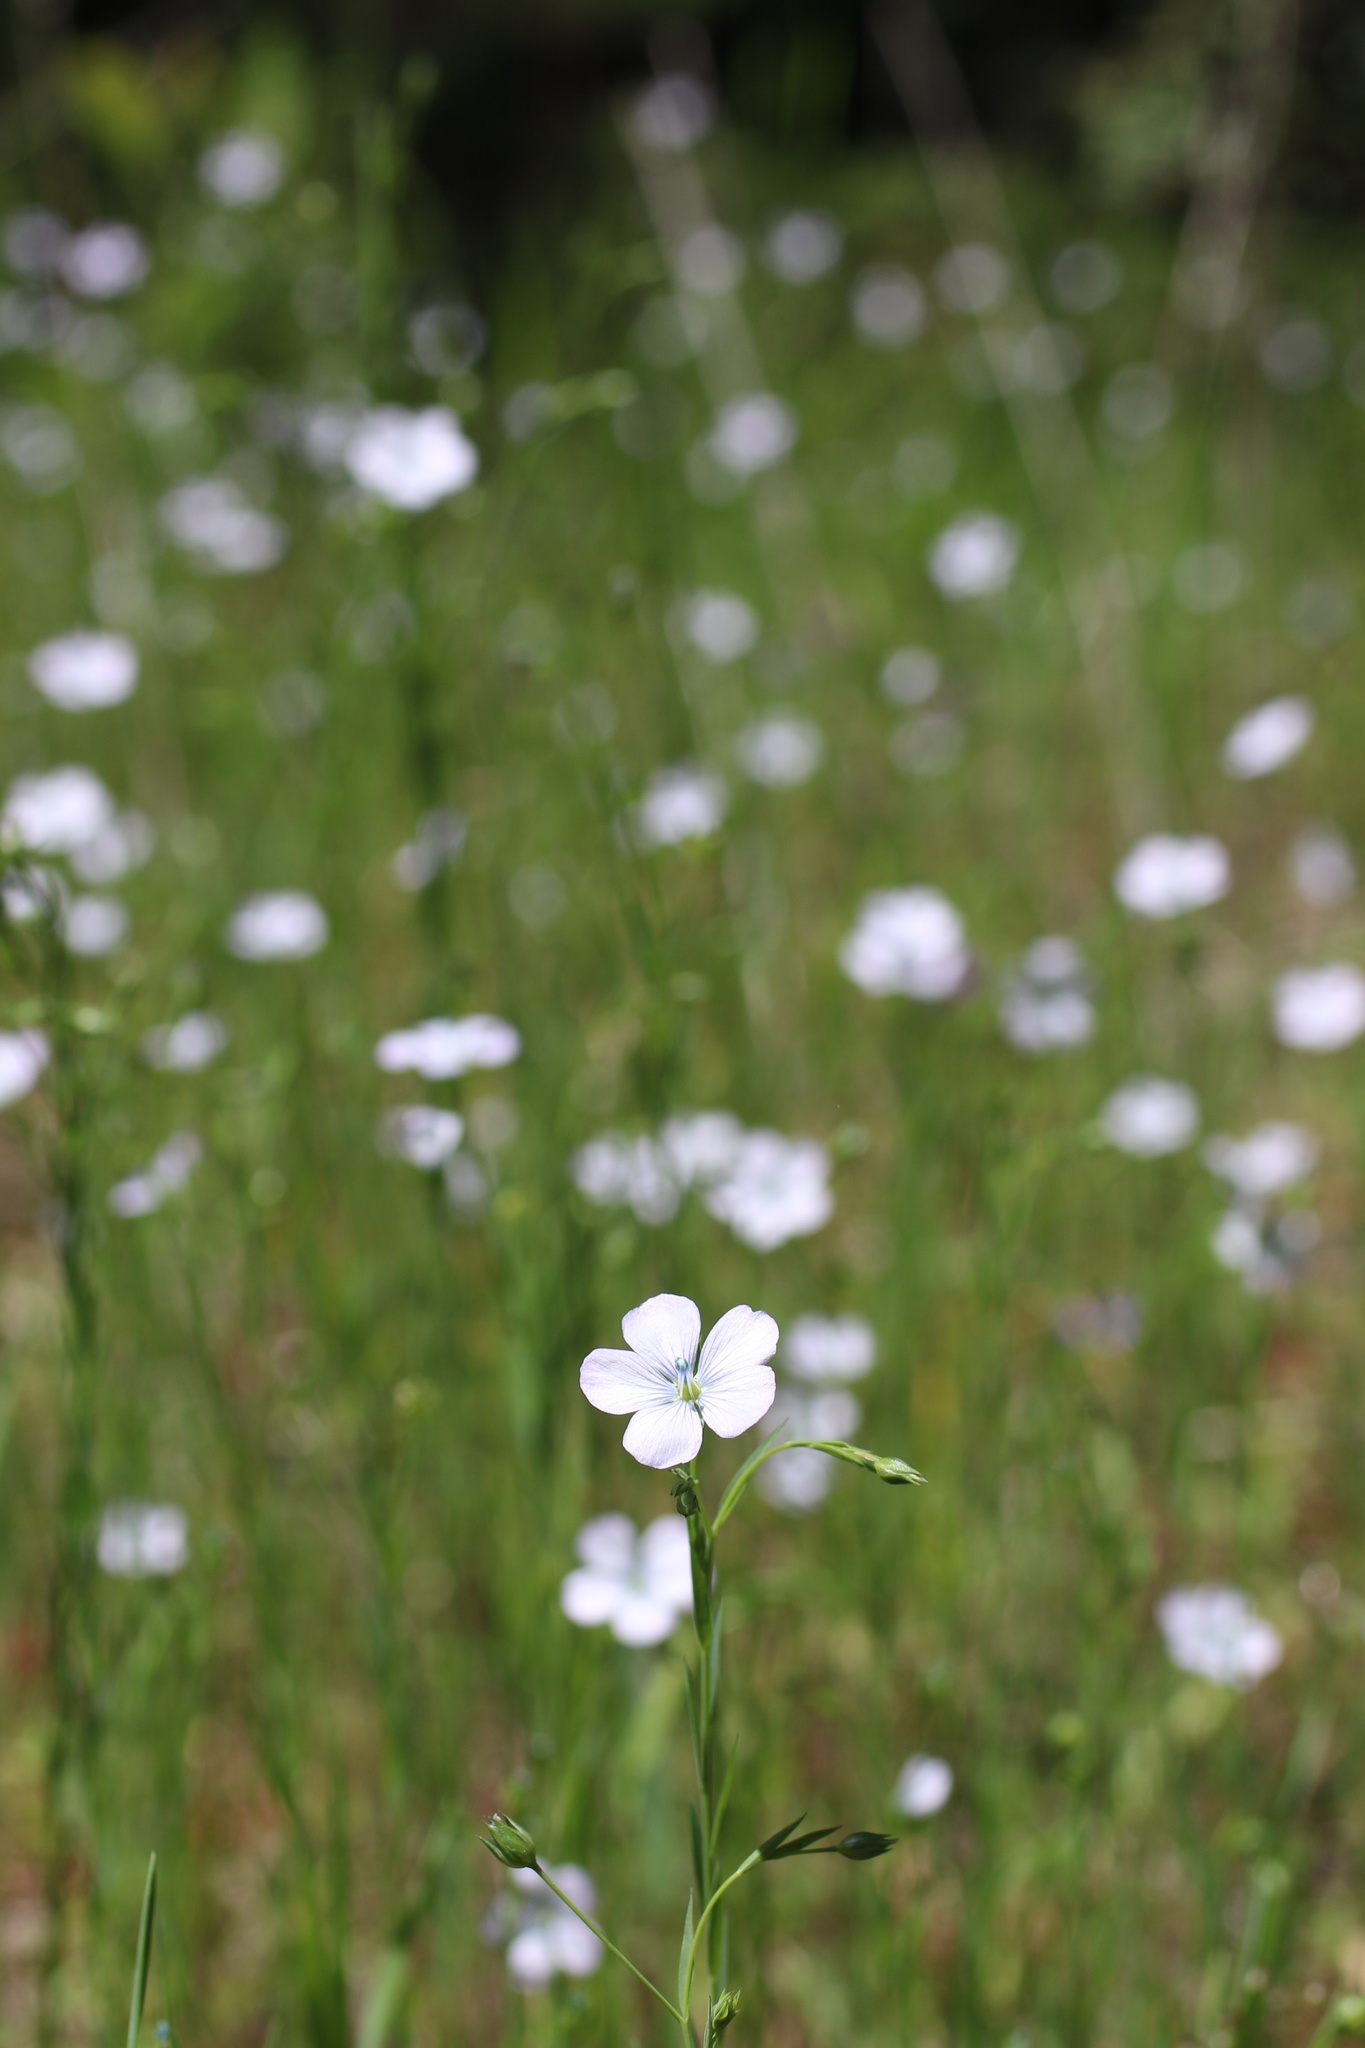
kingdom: Plantae
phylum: Tracheophyta
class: Magnoliopsida
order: Malpighiales
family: Linaceae
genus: Linum
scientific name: Linum bienne
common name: Pale flax
